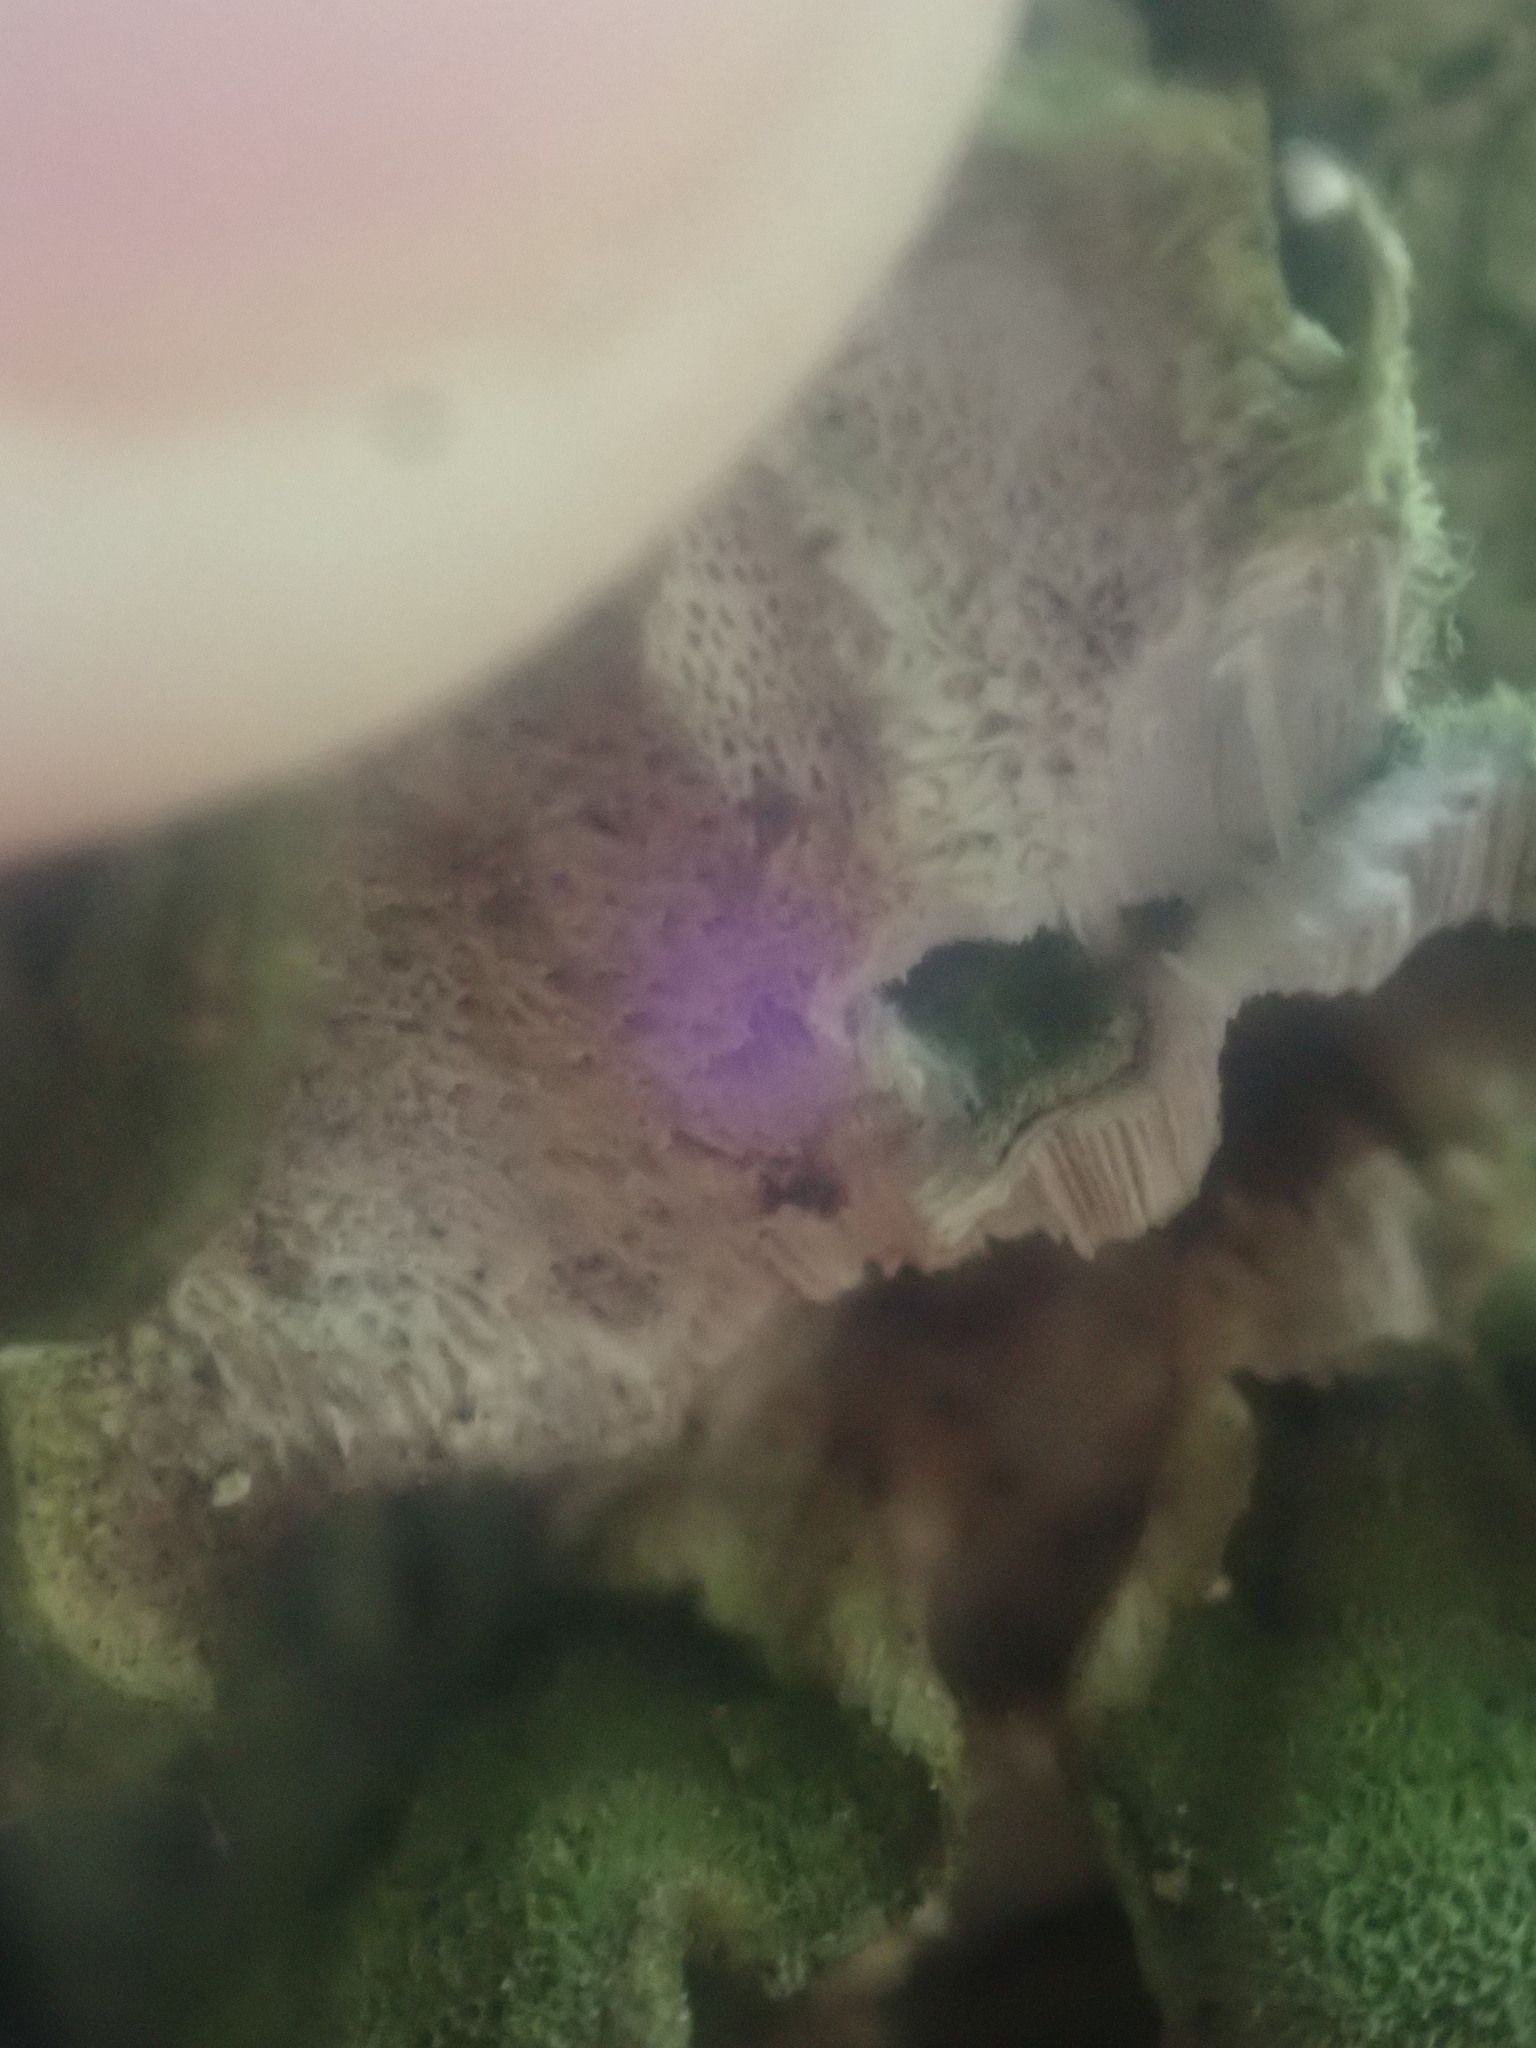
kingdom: Fungi
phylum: Basidiomycota
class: Agaricomycetes
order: Polyporales
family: Polyporaceae
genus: Trametes
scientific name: Trametes versicolor
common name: Turkeytail
